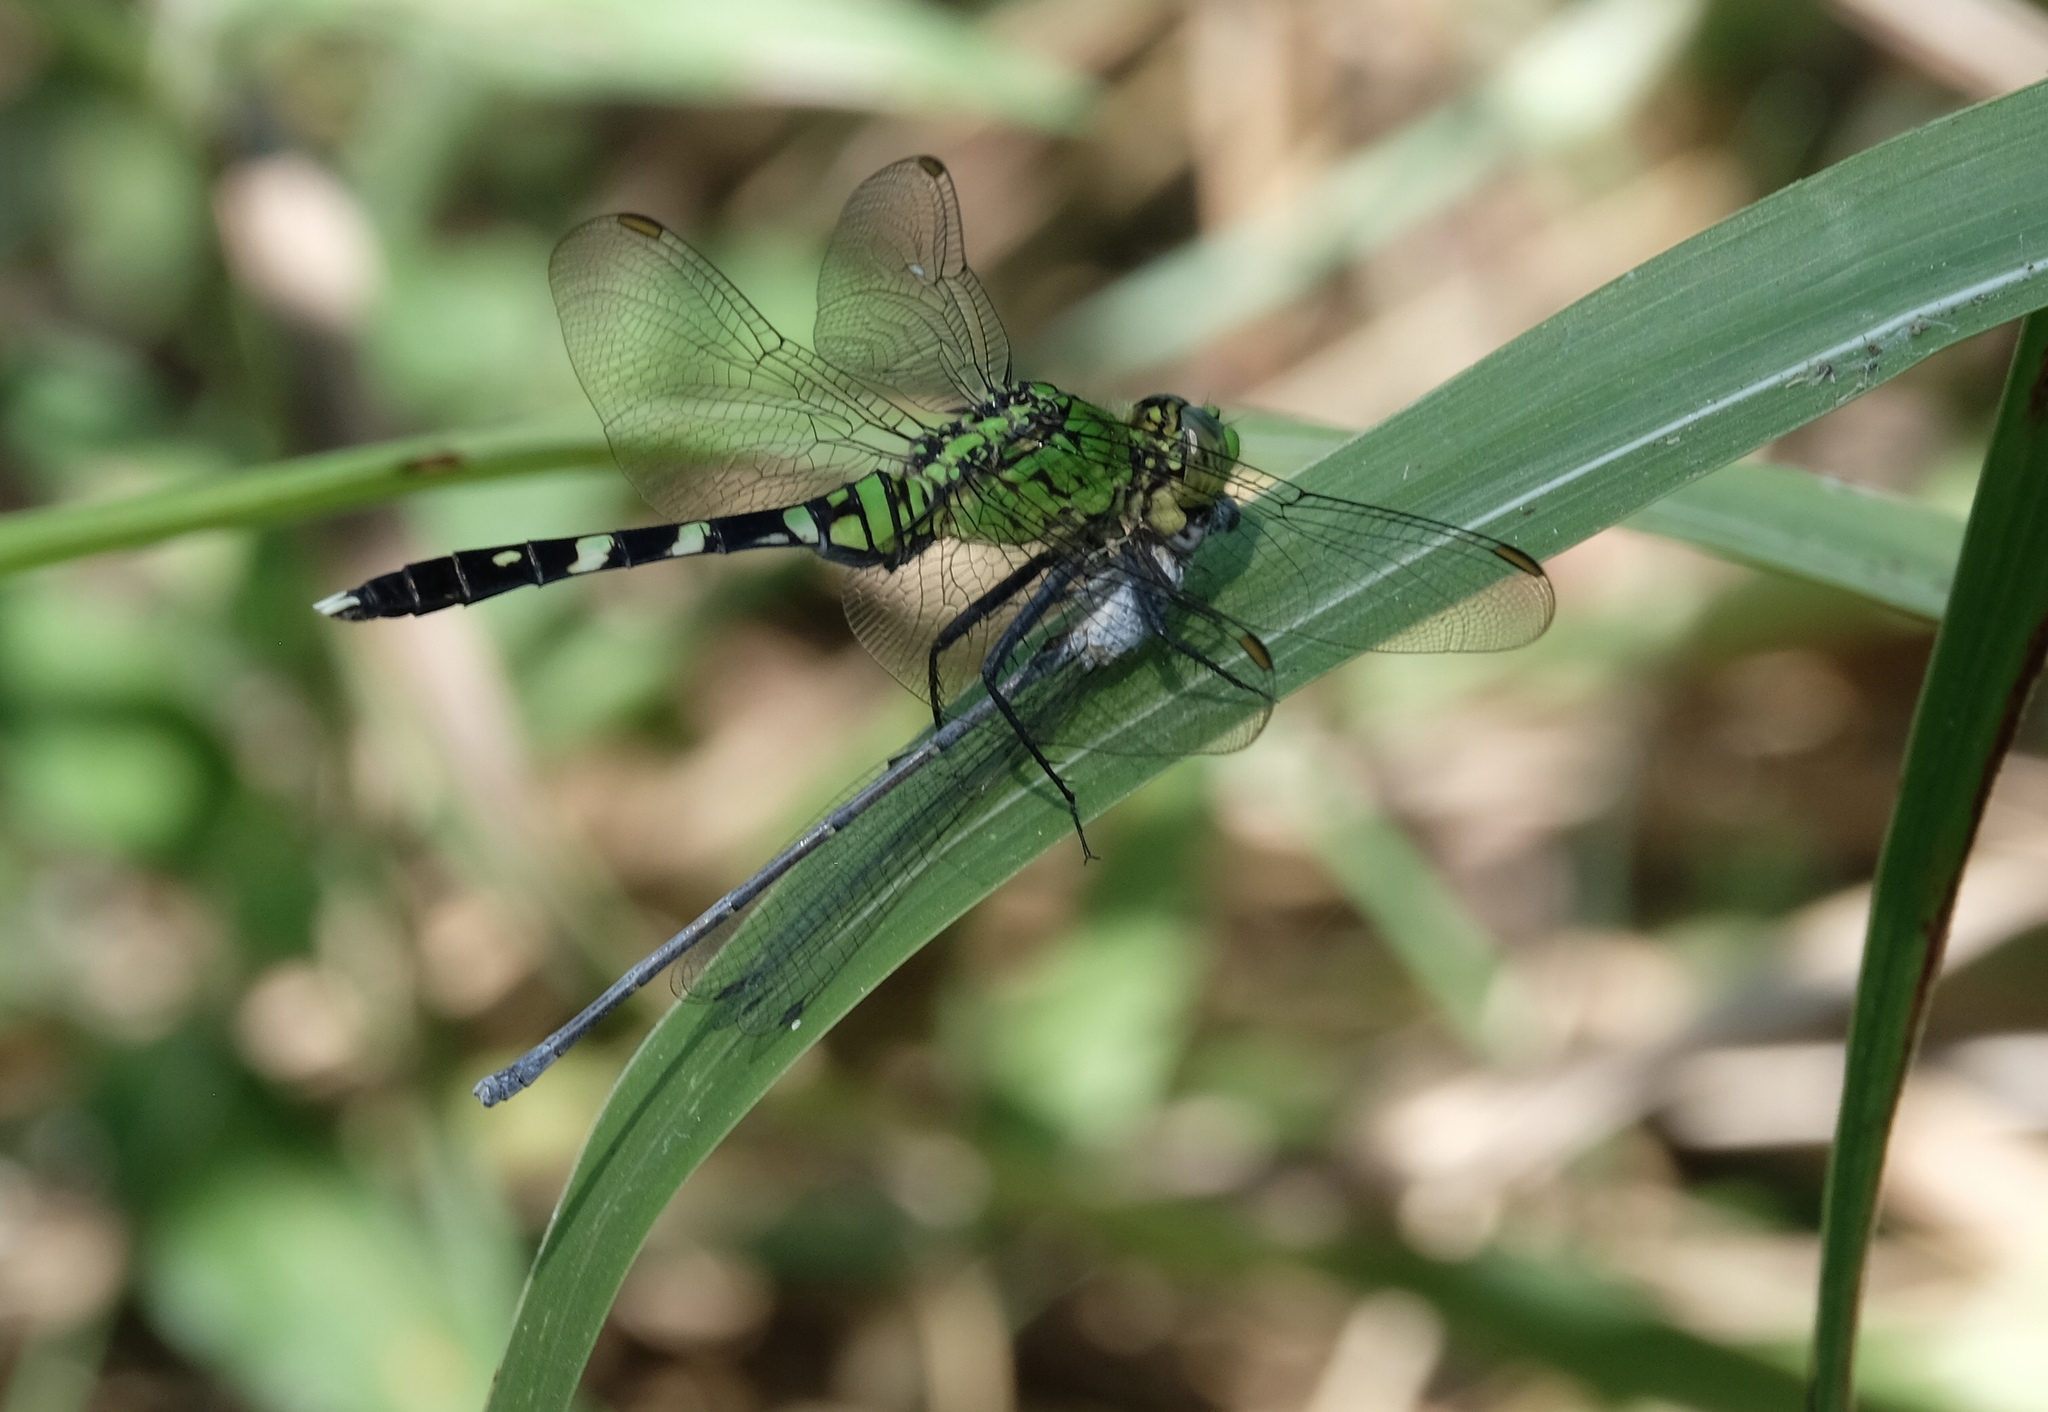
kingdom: Animalia
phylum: Arthropoda
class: Insecta
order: Odonata
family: Libellulidae
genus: Erythemis
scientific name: Erythemis simplicicollis
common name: Eastern pondhawk
